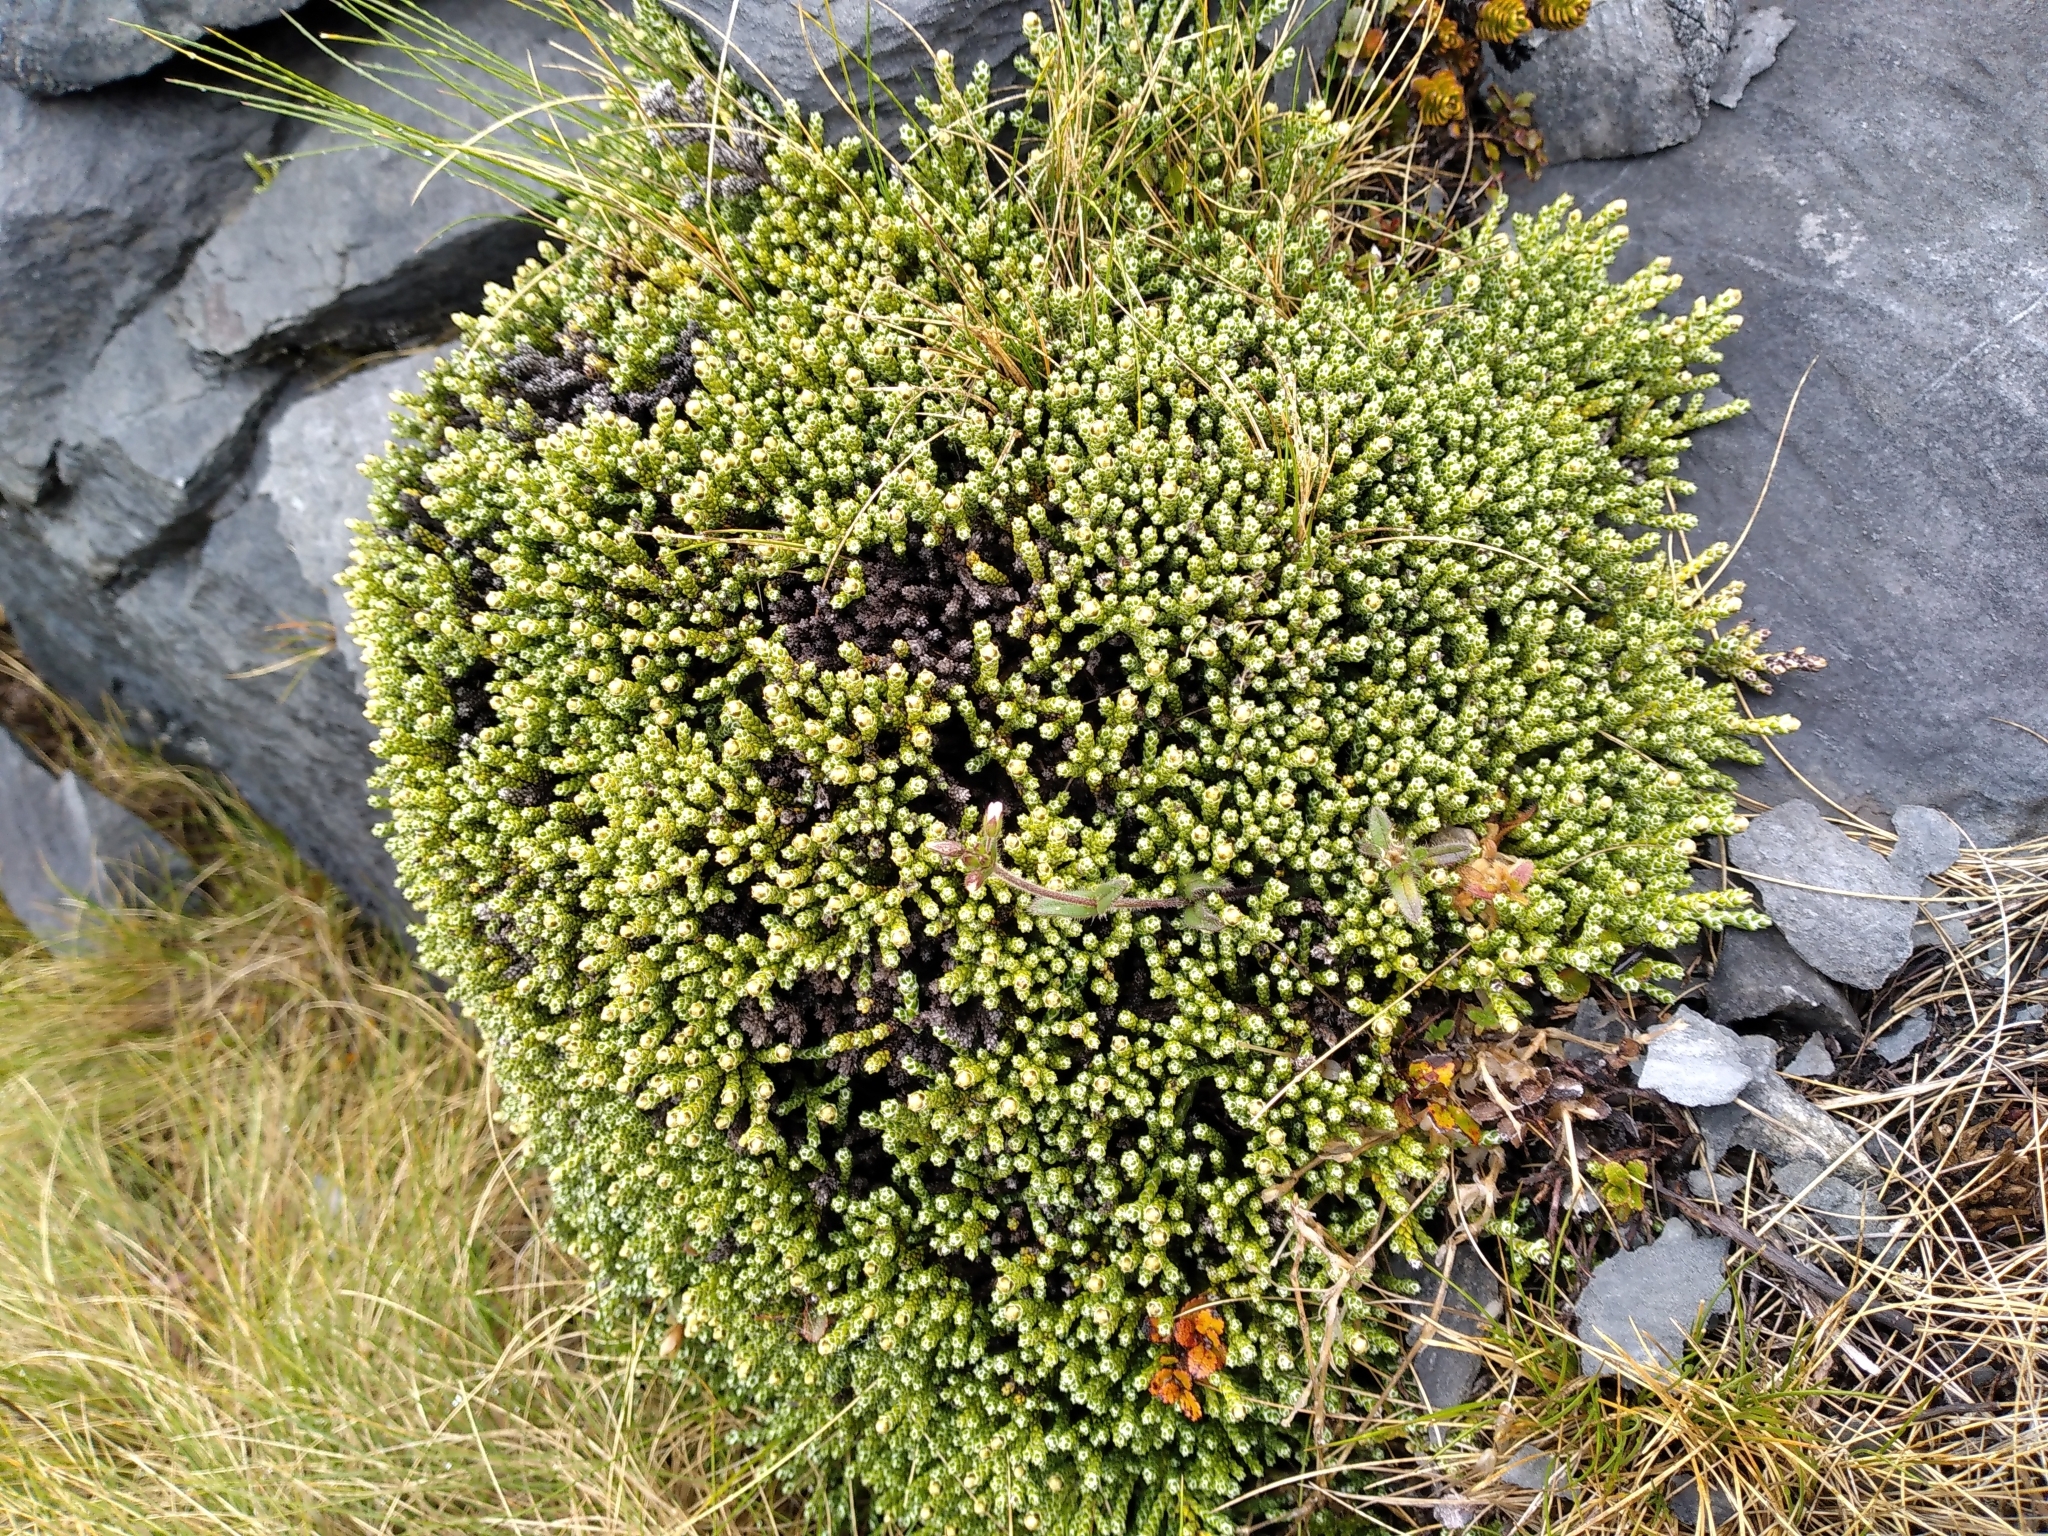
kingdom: Plantae
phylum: Tracheophyta
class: Magnoliopsida
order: Asterales
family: Asteraceae
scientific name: Asteraceae
